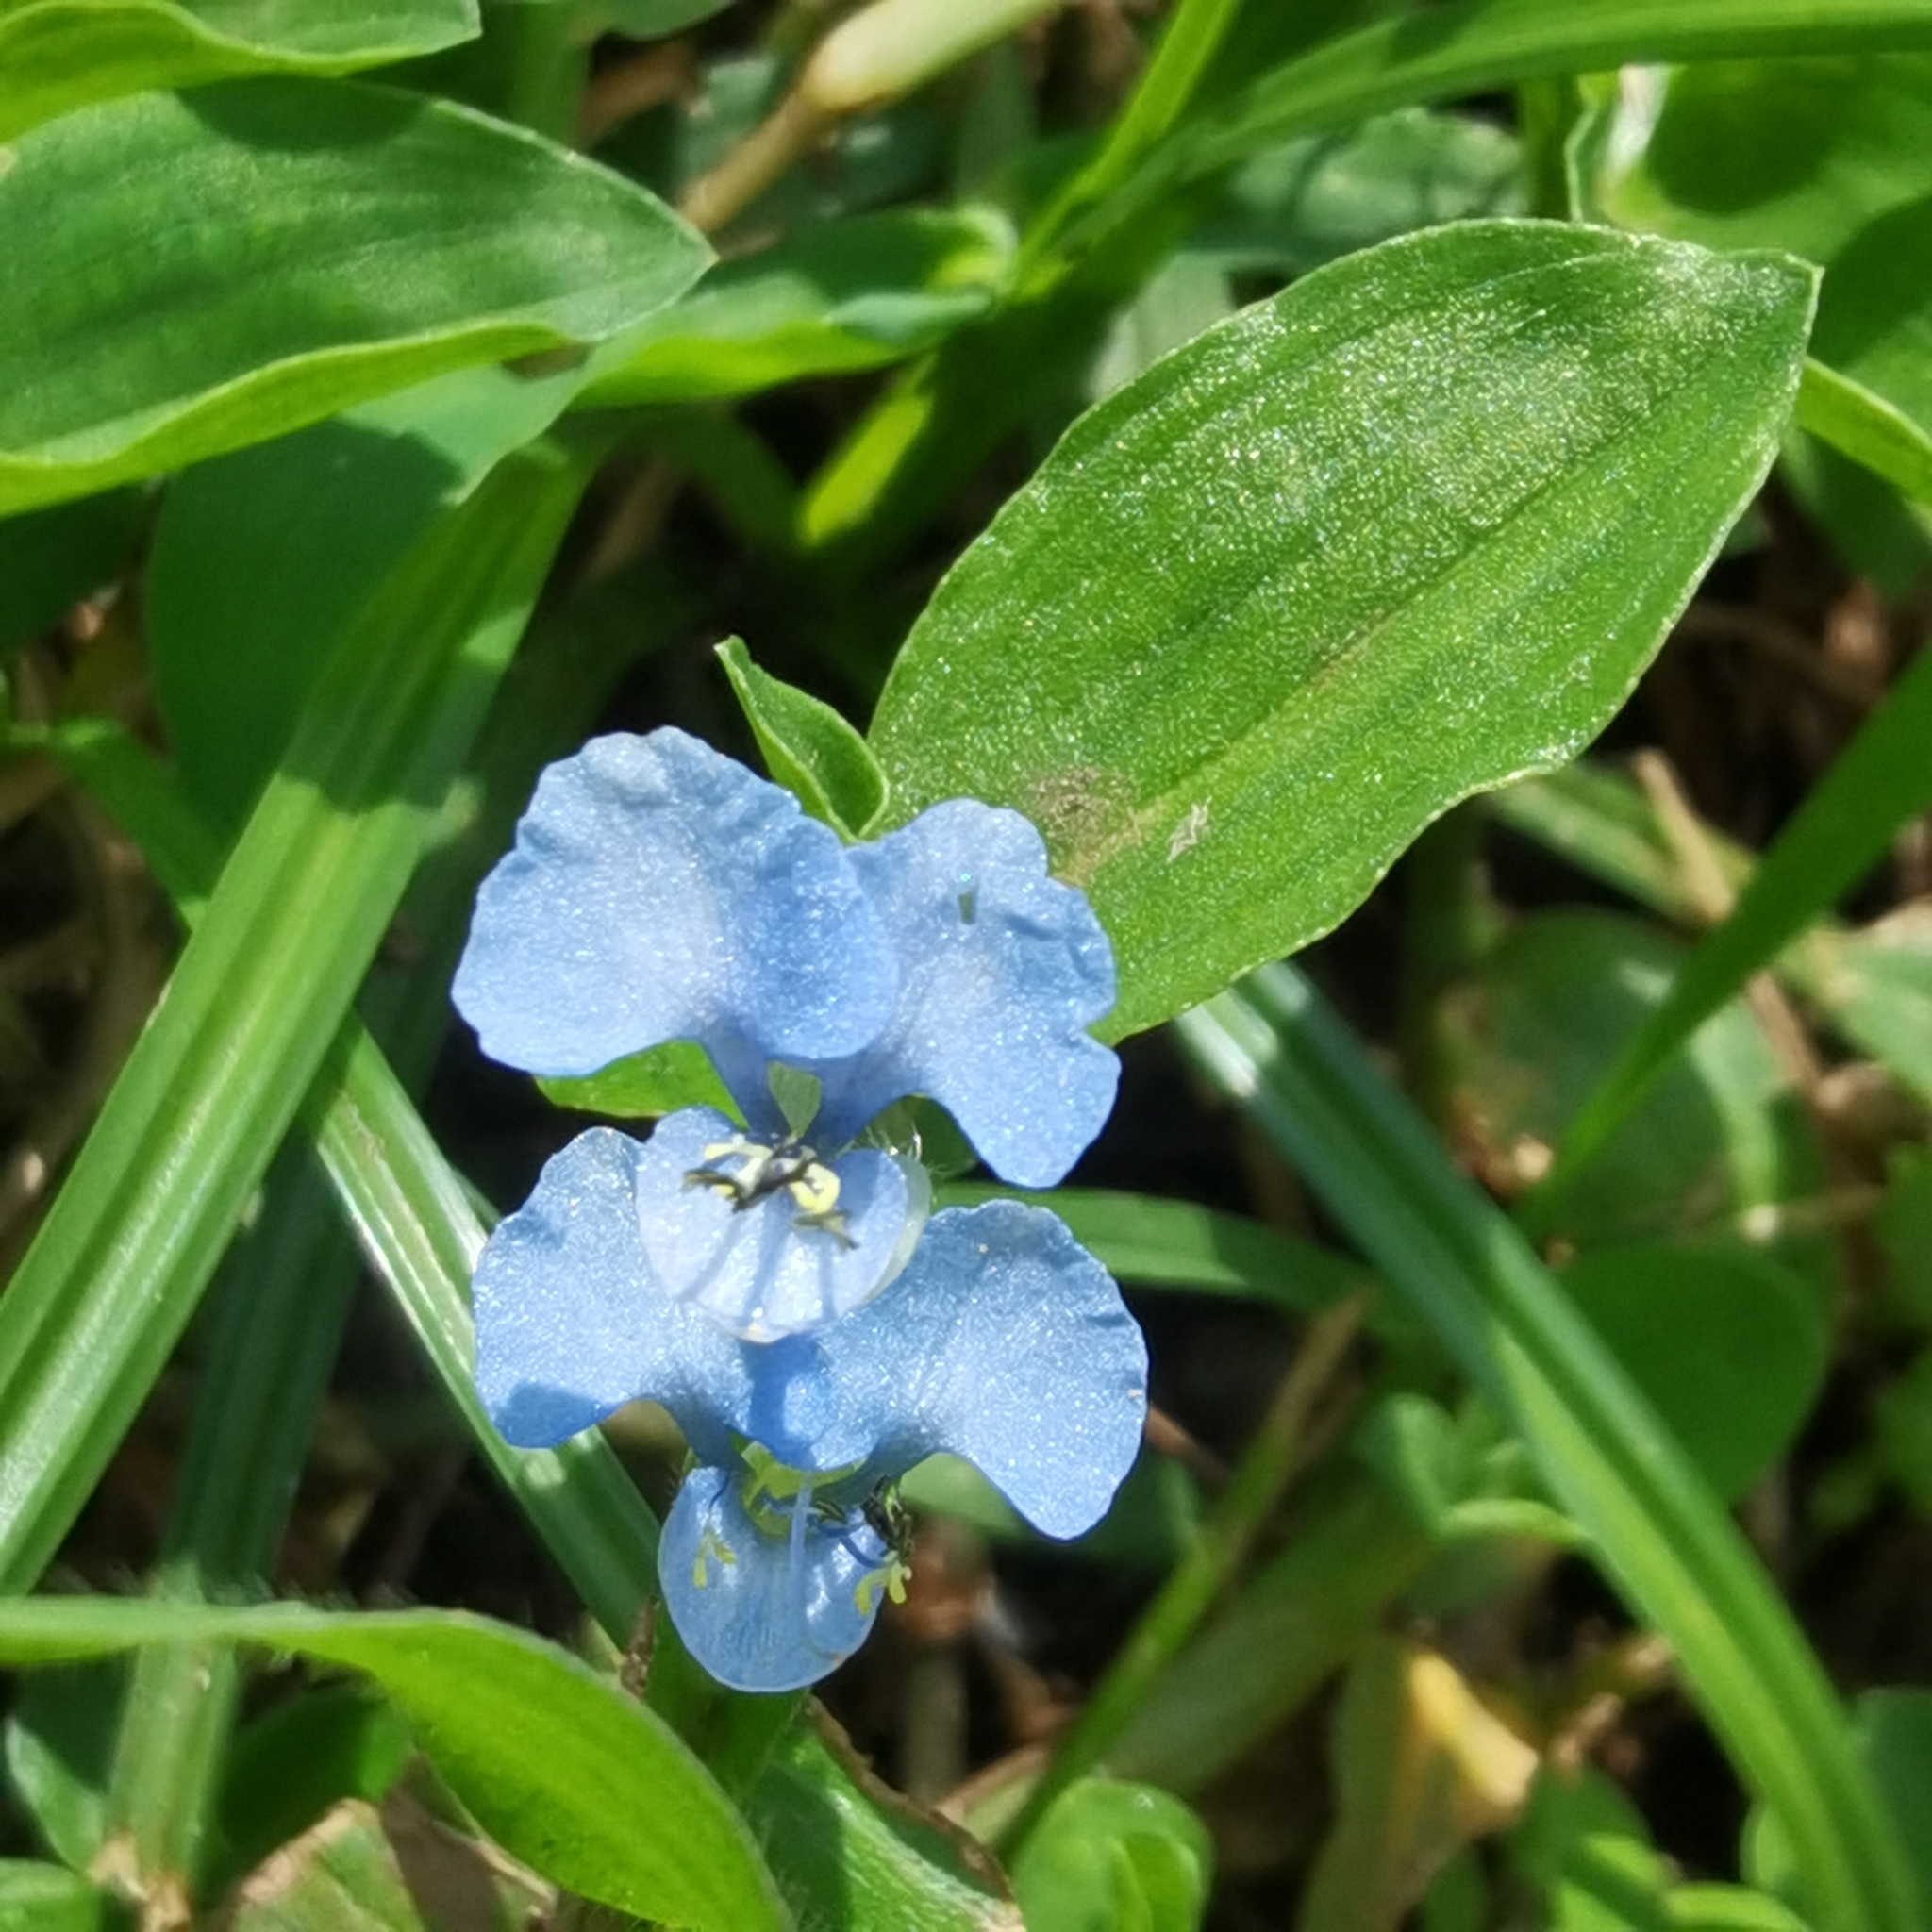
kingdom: Plantae
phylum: Tracheophyta
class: Liliopsida
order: Commelinales
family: Commelinaceae
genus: Commelina
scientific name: Commelina diffusa
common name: Climbing dayflower
